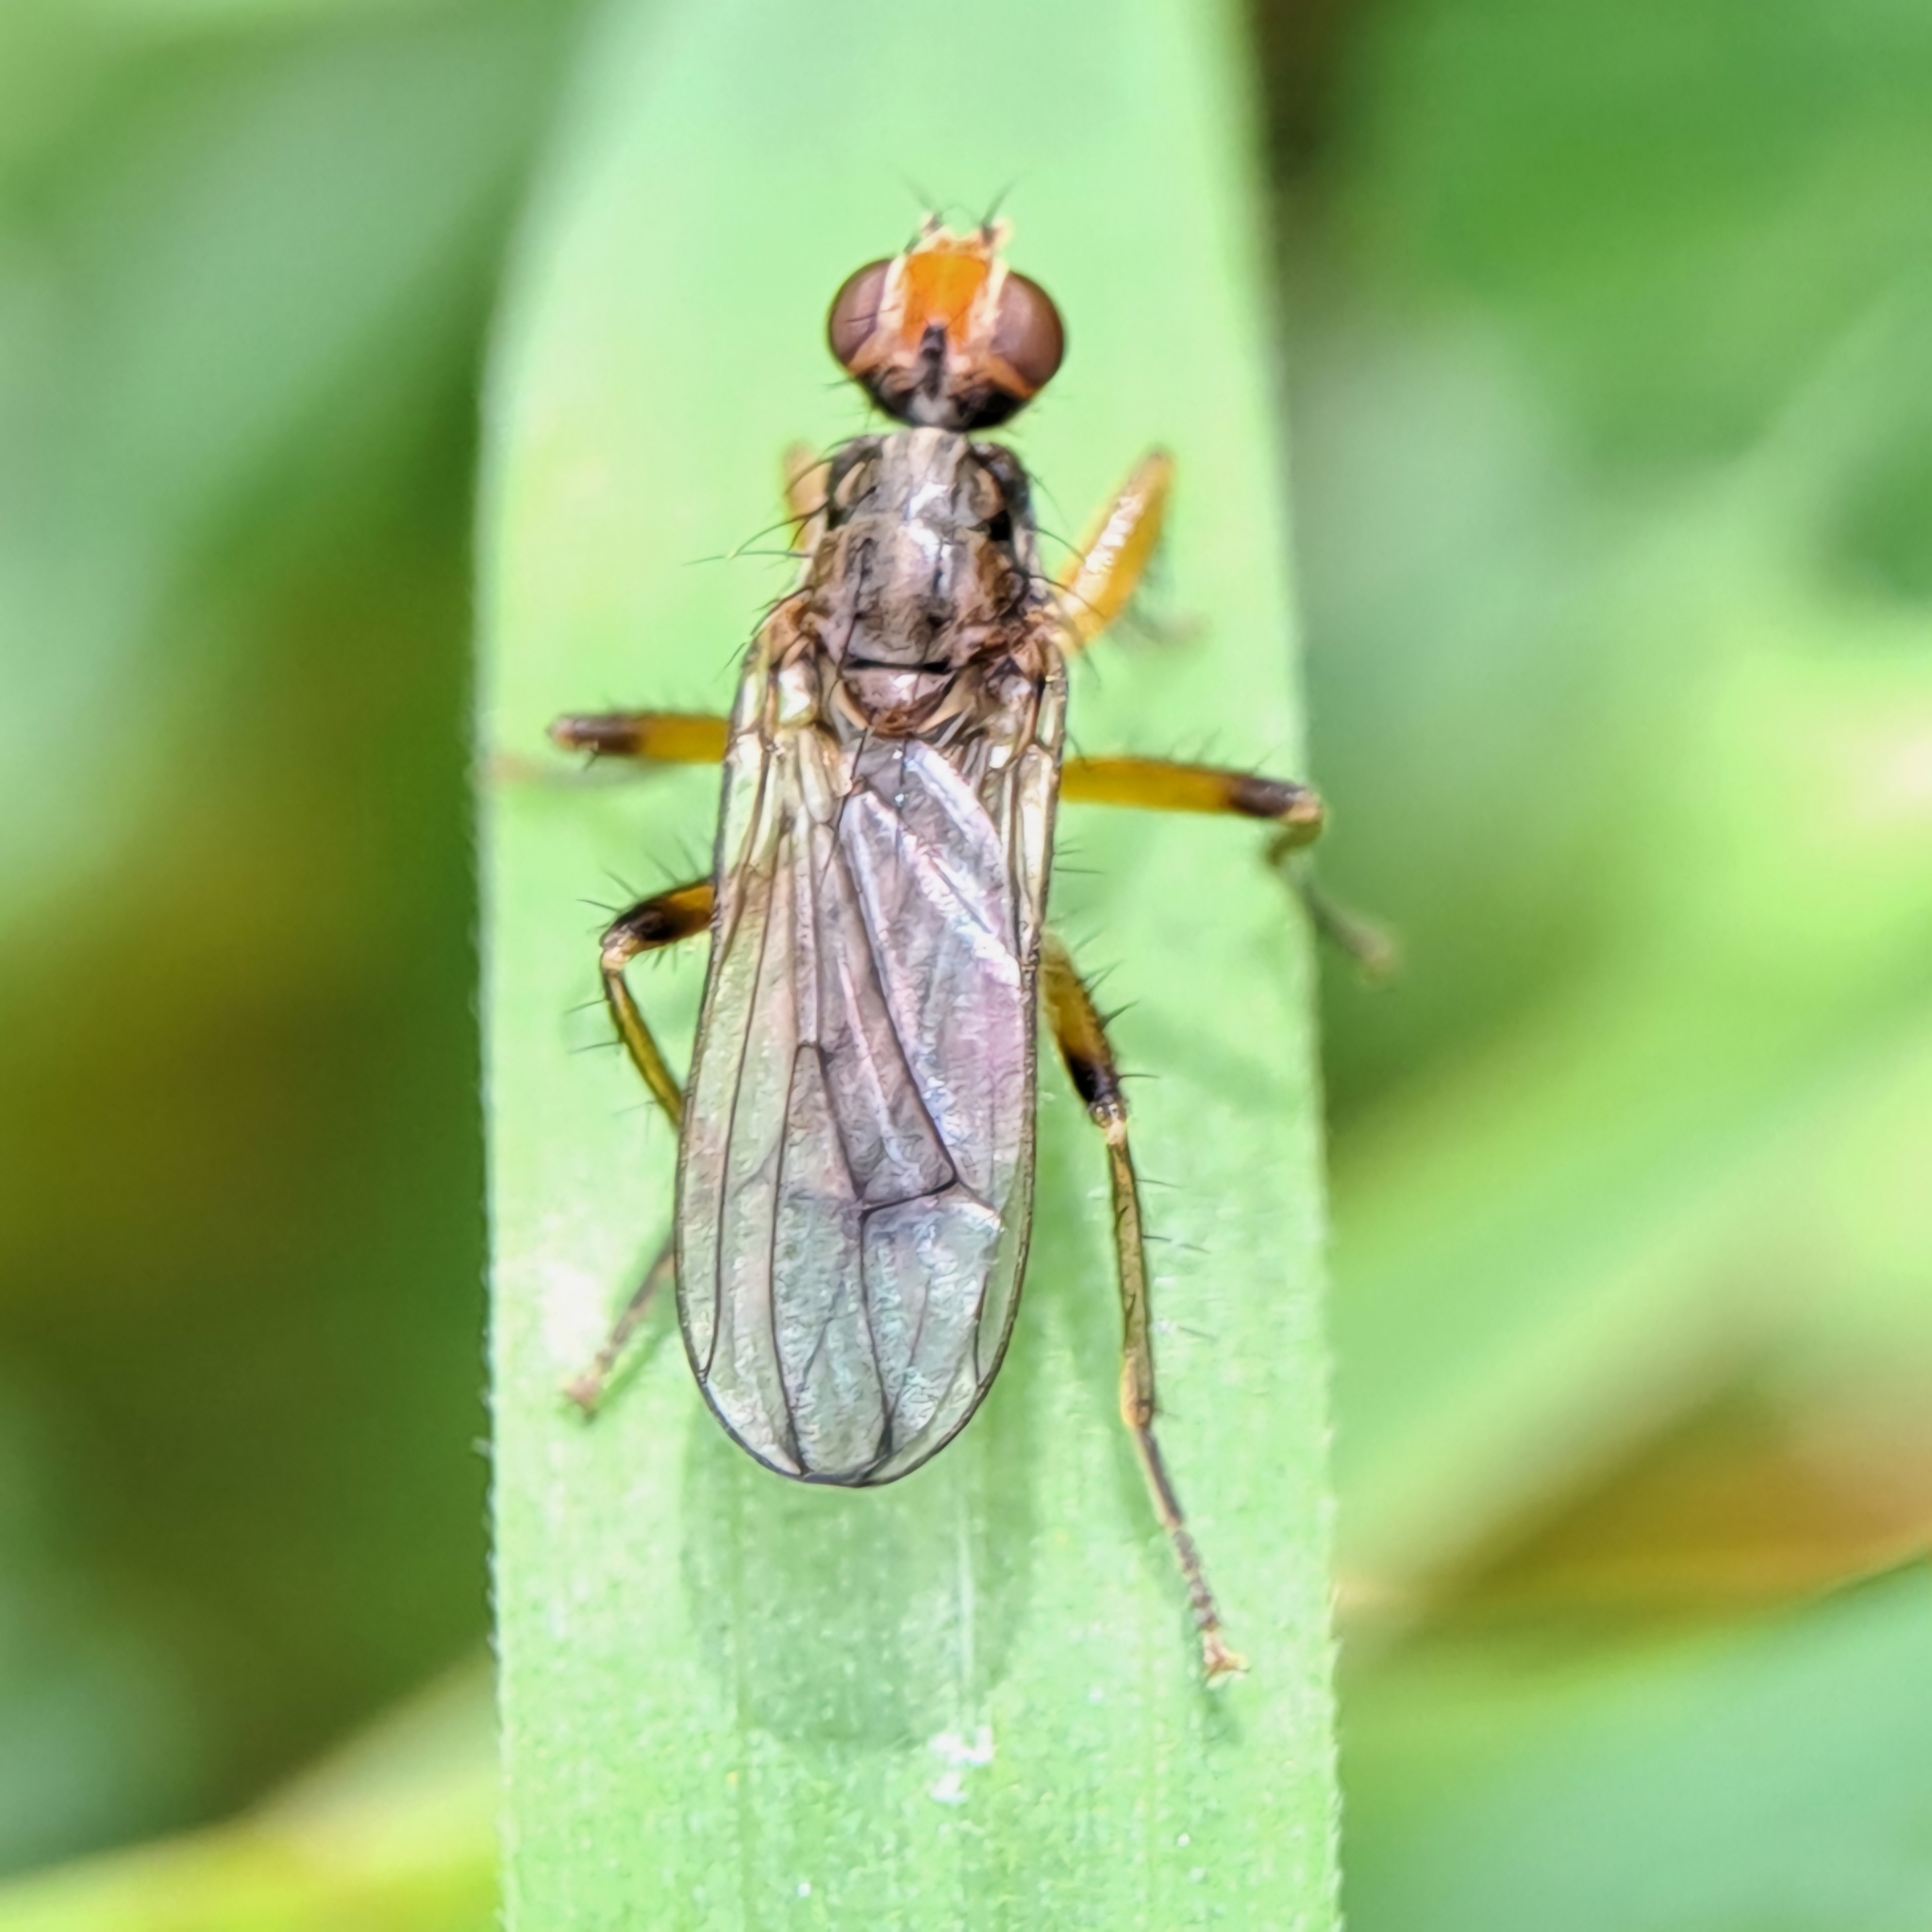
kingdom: Animalia
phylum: Arthropoda
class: Insecta
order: Diptera
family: Scathophagidae
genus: Norellisoma
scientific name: Norellisoma spinimanum
